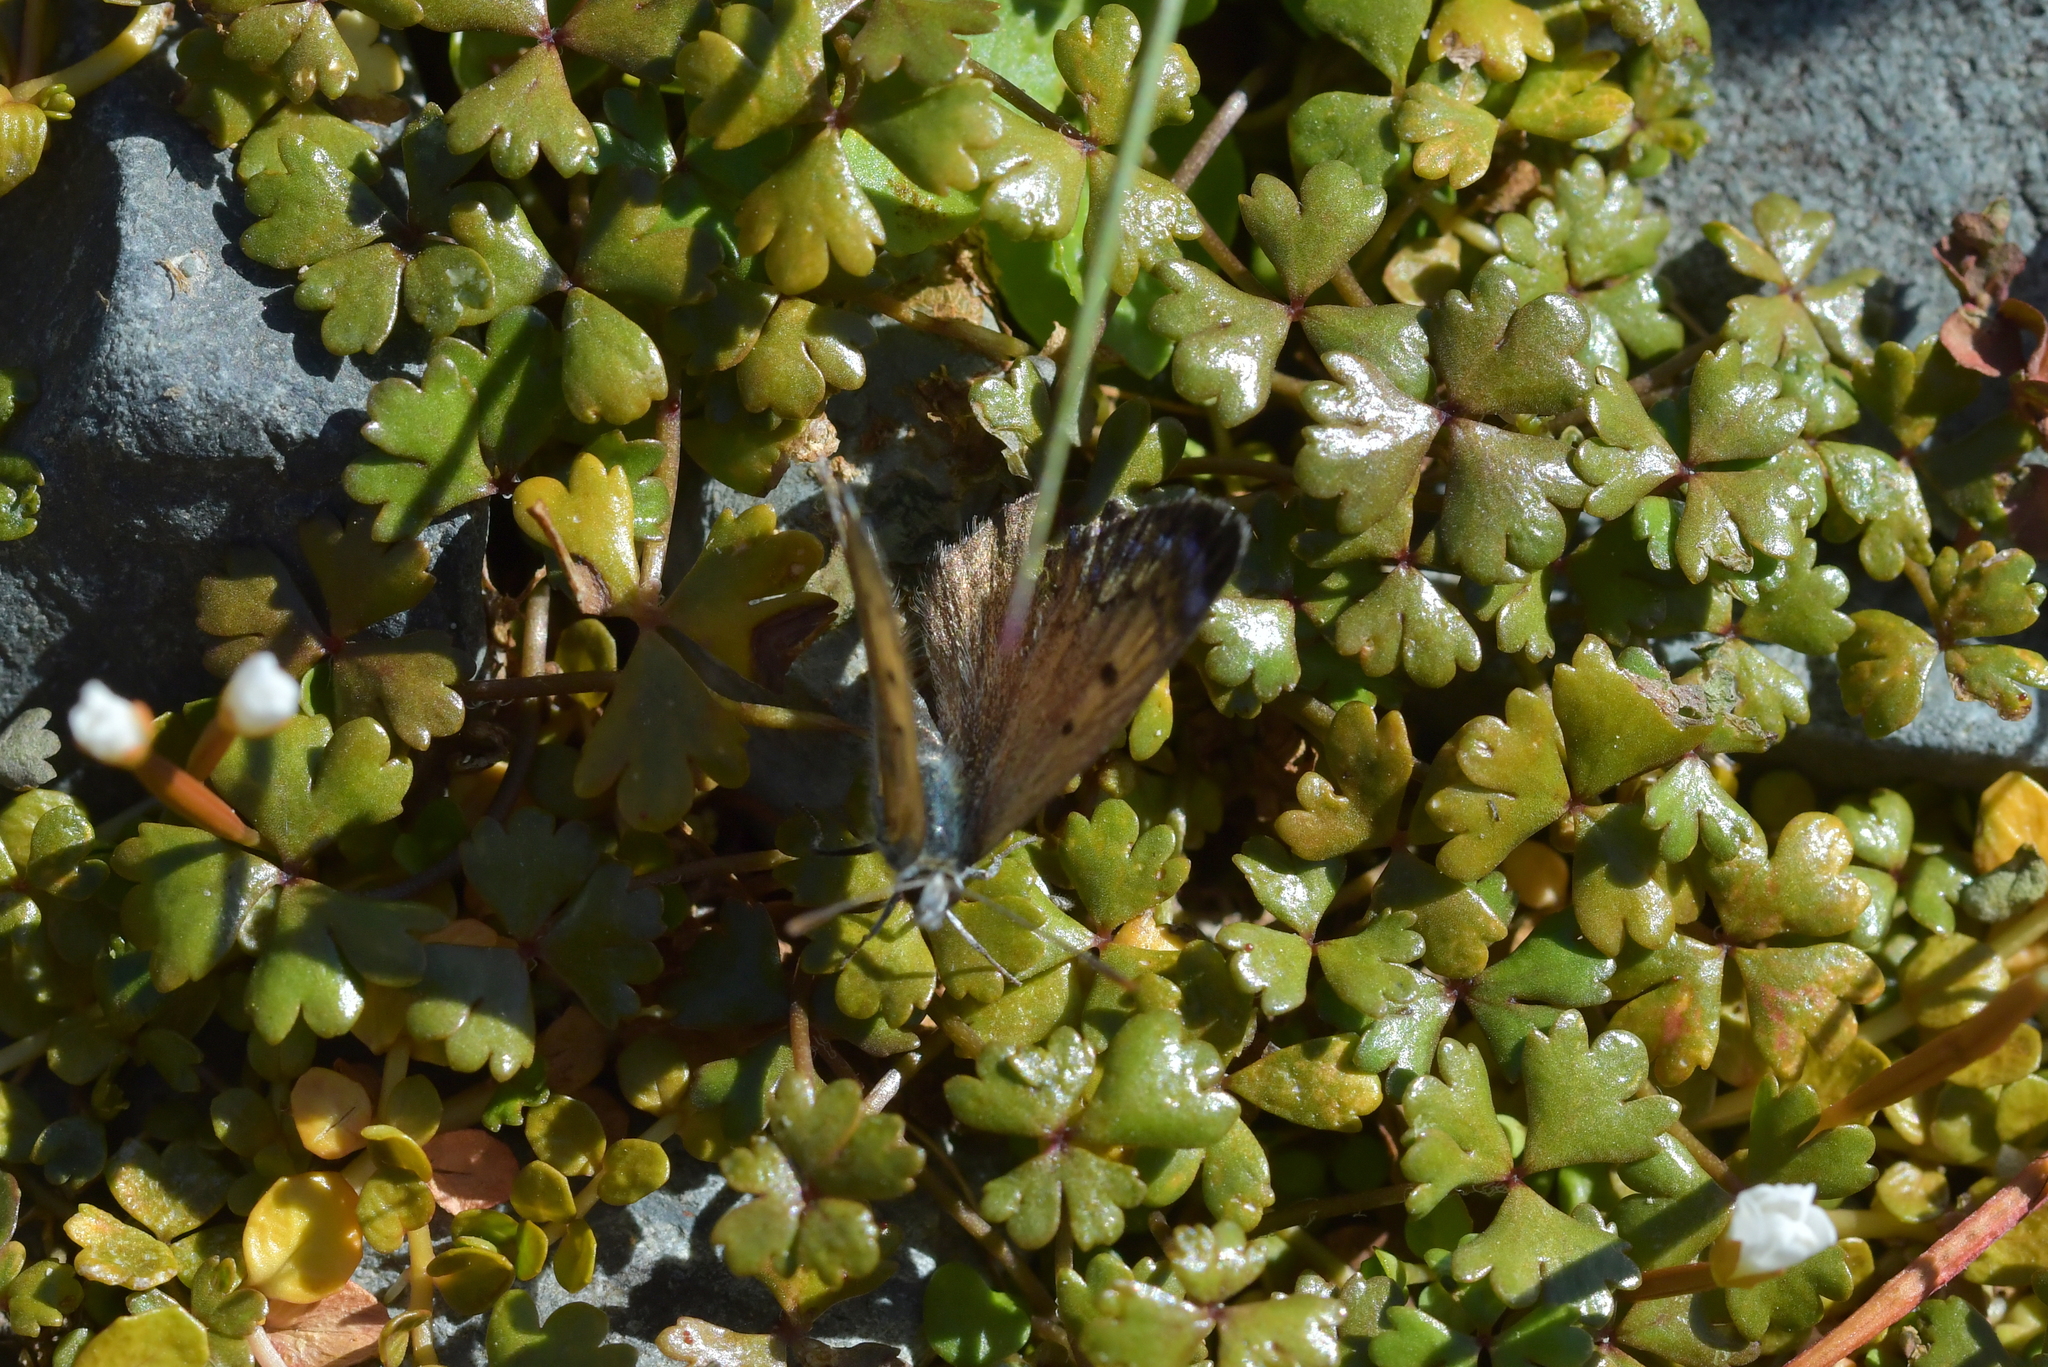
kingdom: Animalia
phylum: Arthropoda
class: Insecta
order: Lepidoptera
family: Lycaenidae
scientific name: Lycaenidae
